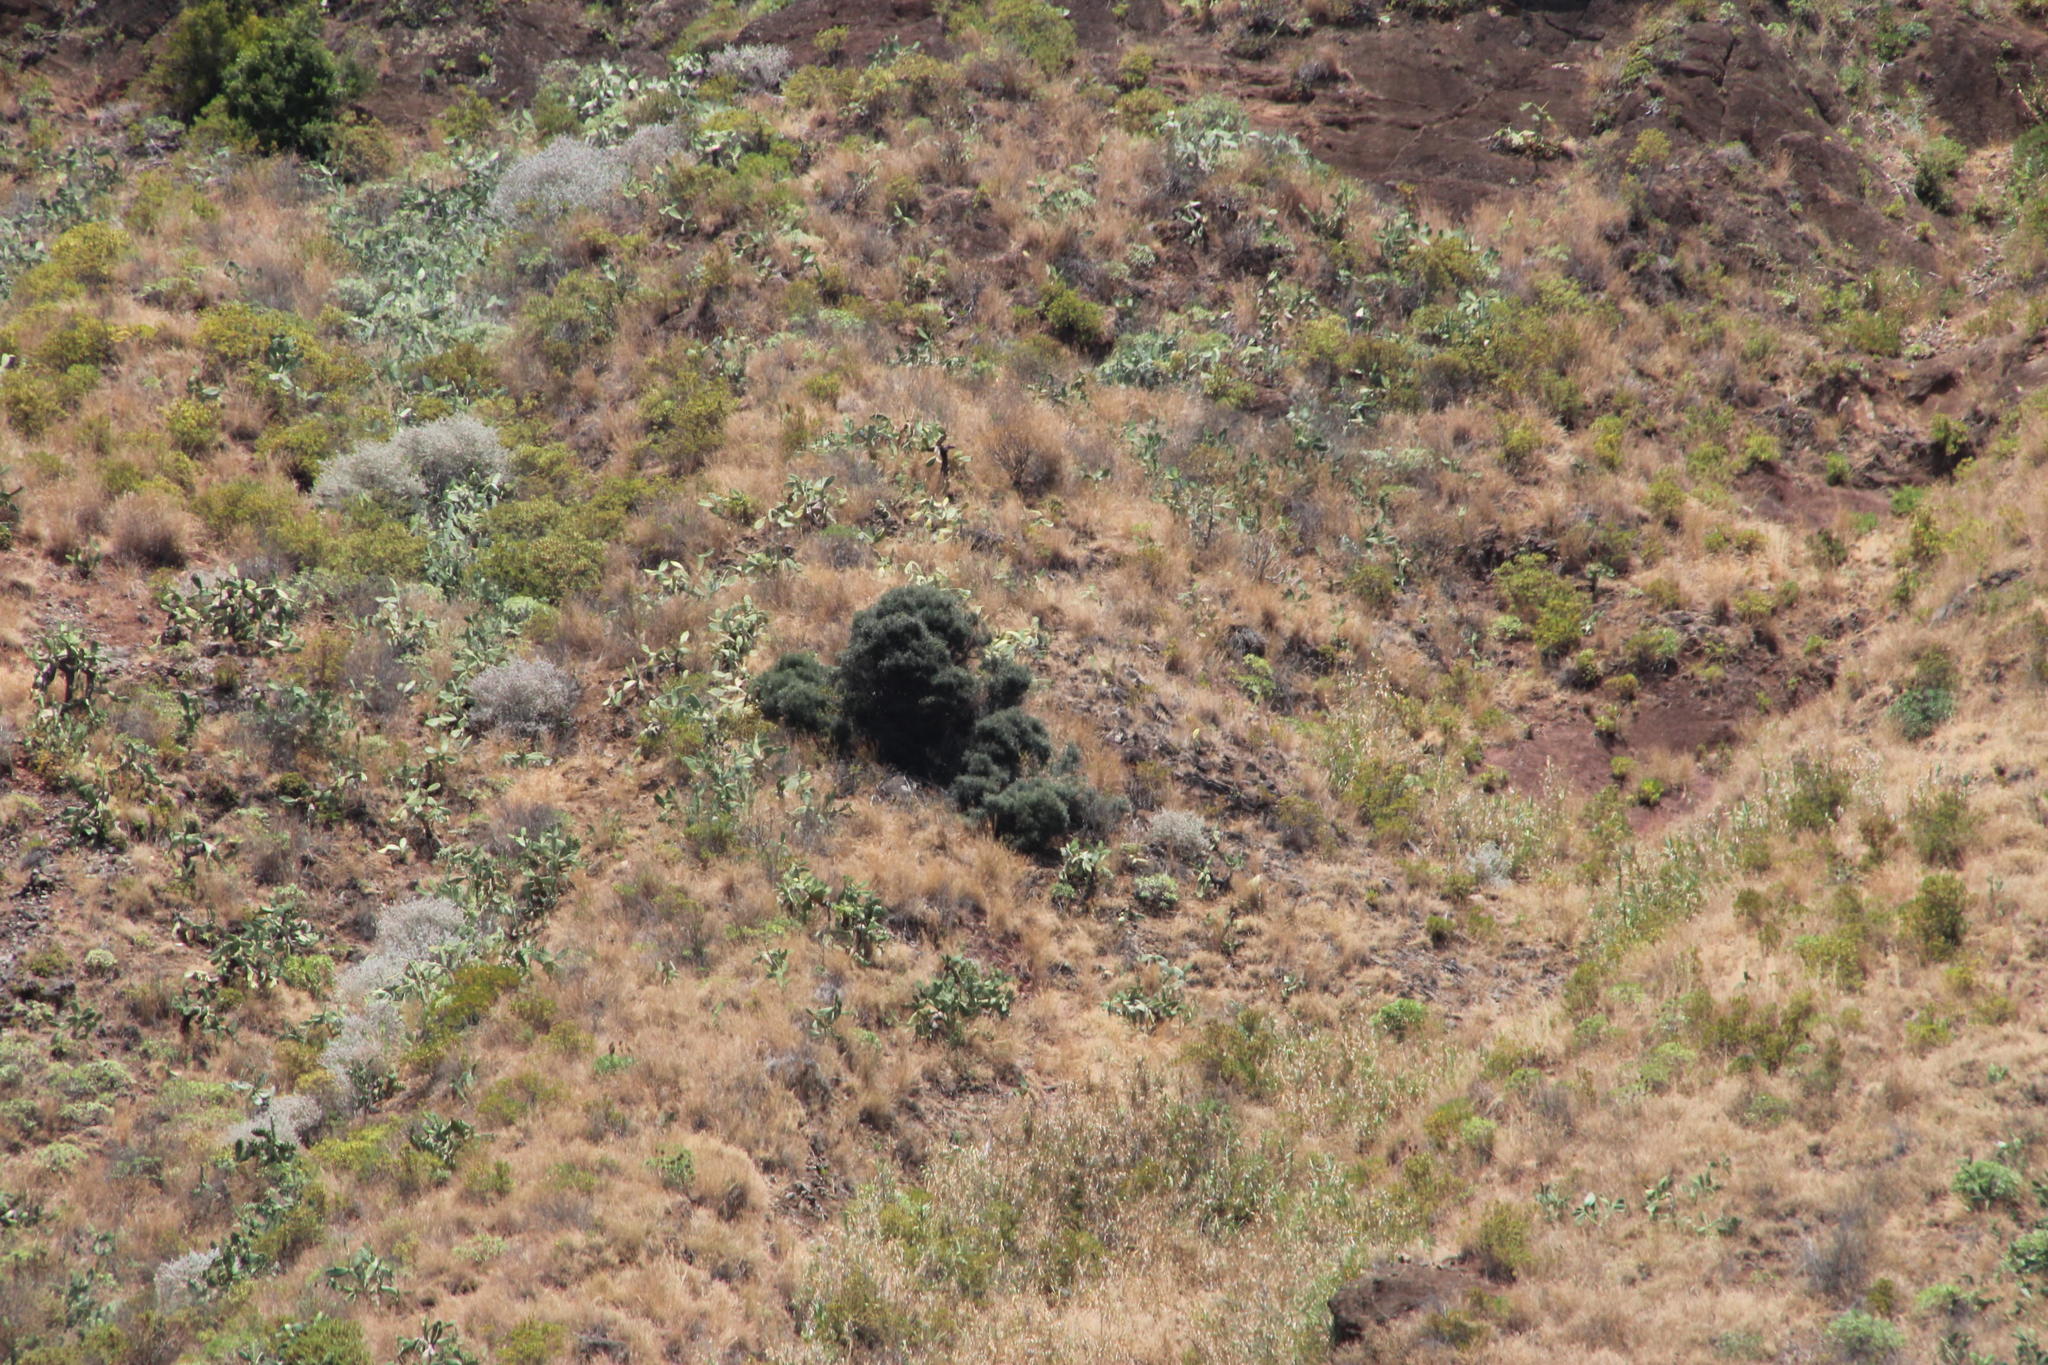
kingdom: Plantae
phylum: Tracheophyta
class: Magnoliopsida
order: Lamiales
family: Oleaceae
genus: Olea
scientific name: Olea europaea
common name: Olive
